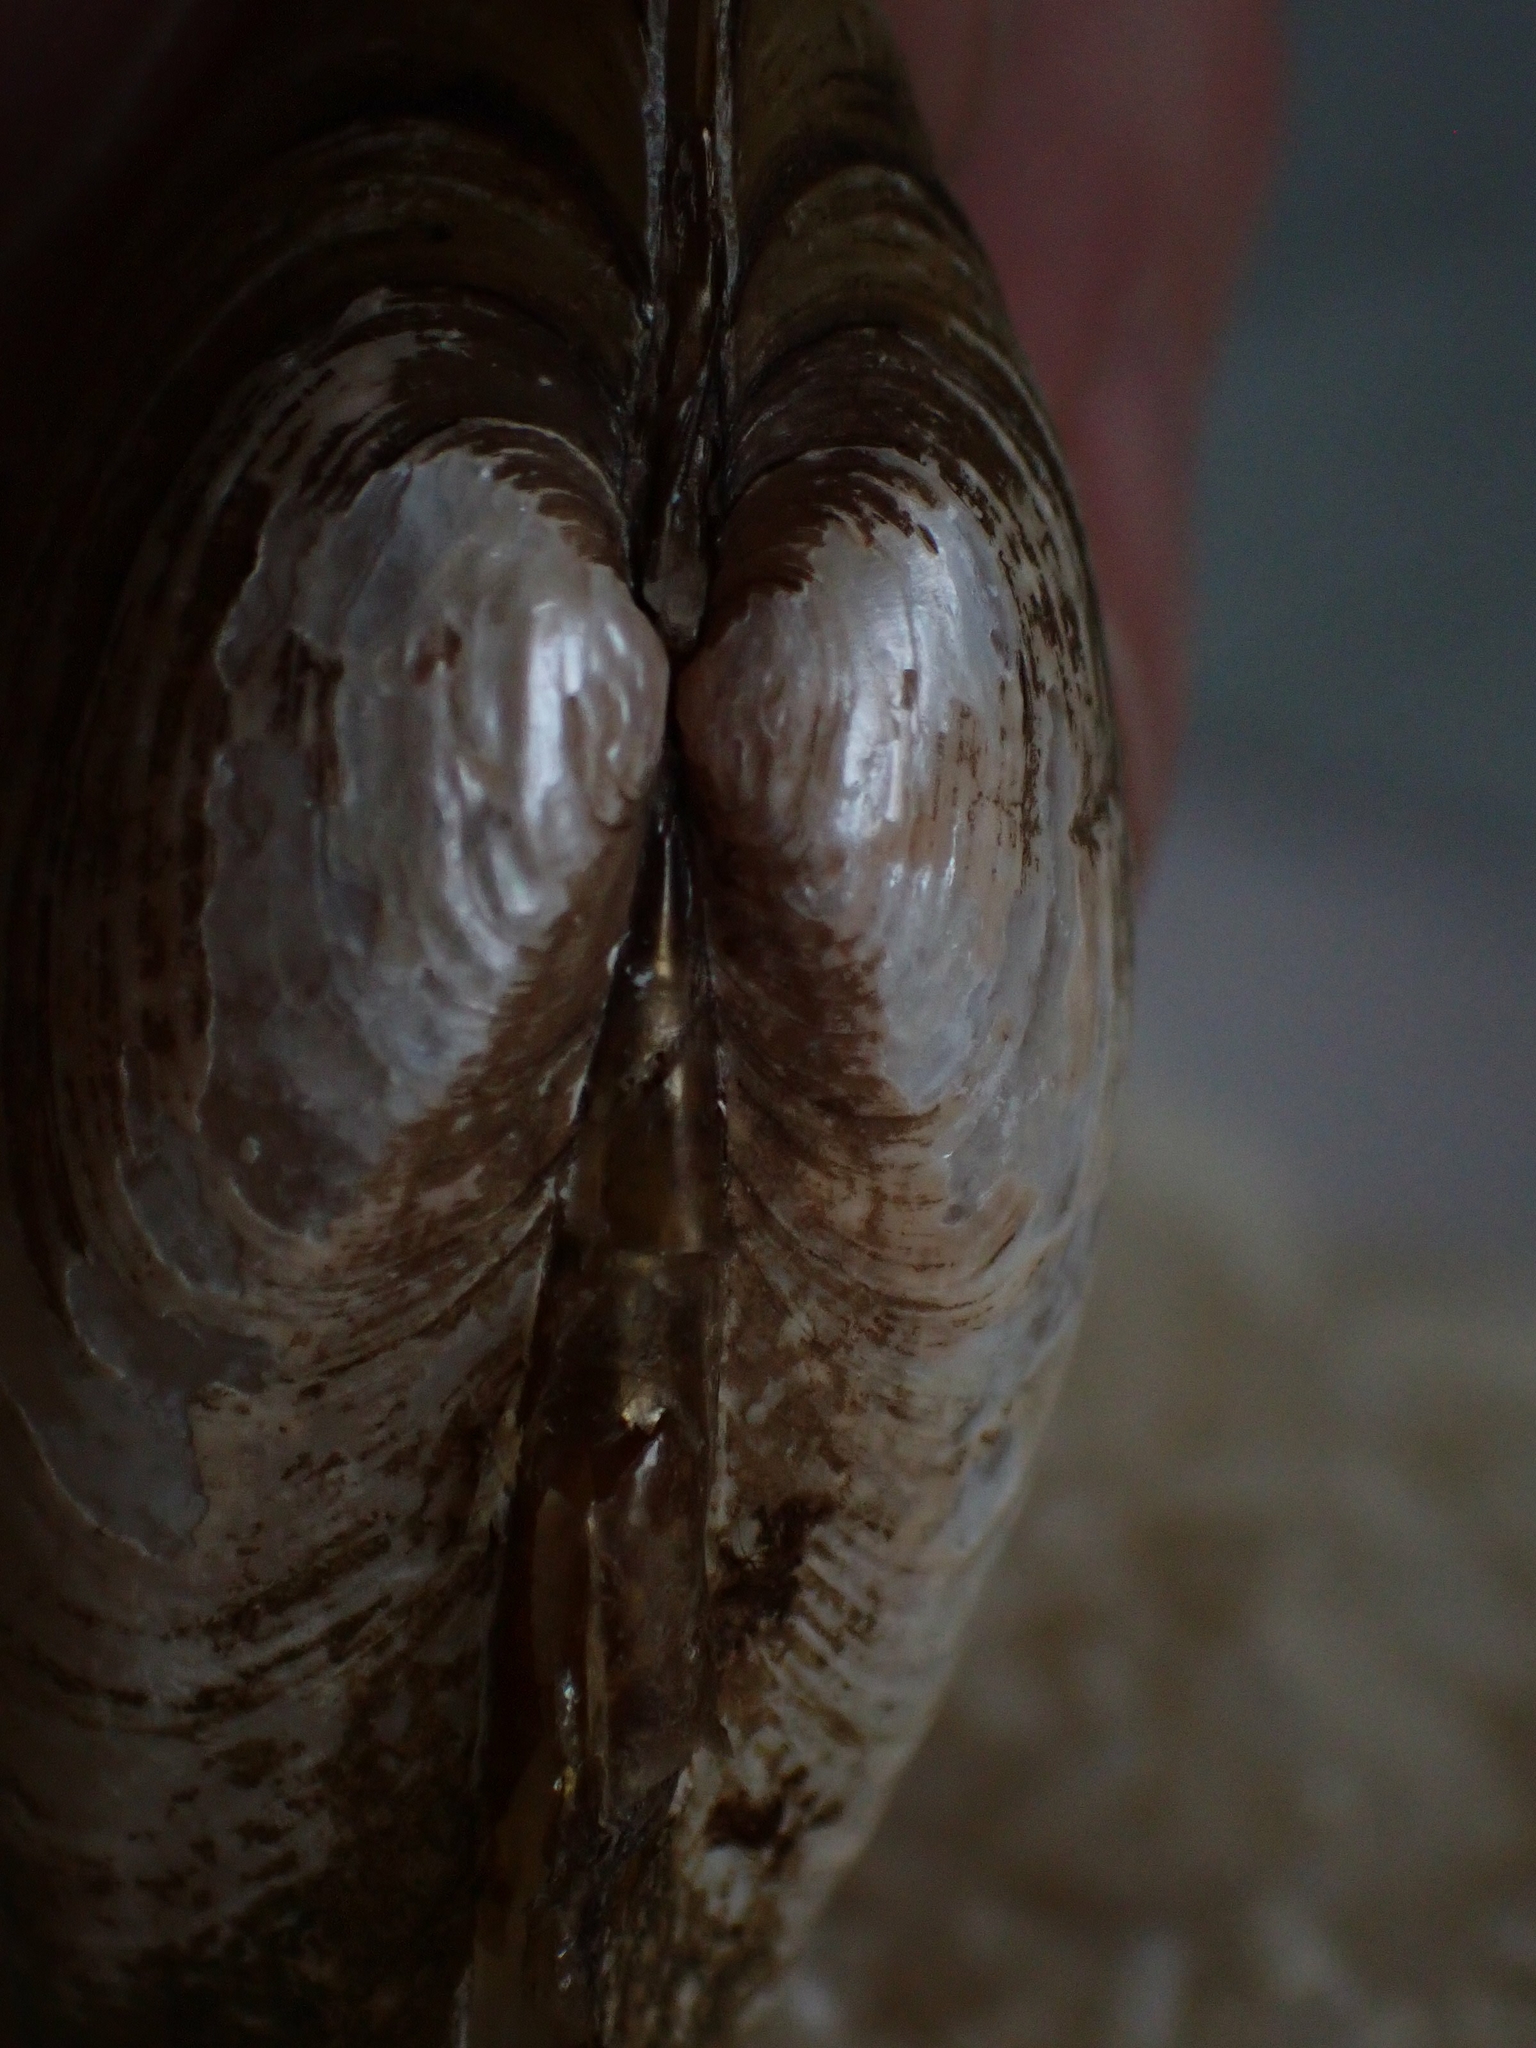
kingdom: Animalia
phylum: Mollusca
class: Bivalvia
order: Unionida
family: Unionidae
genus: Lampsilis
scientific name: Lampsilis siliquoidea
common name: Fatmucket
